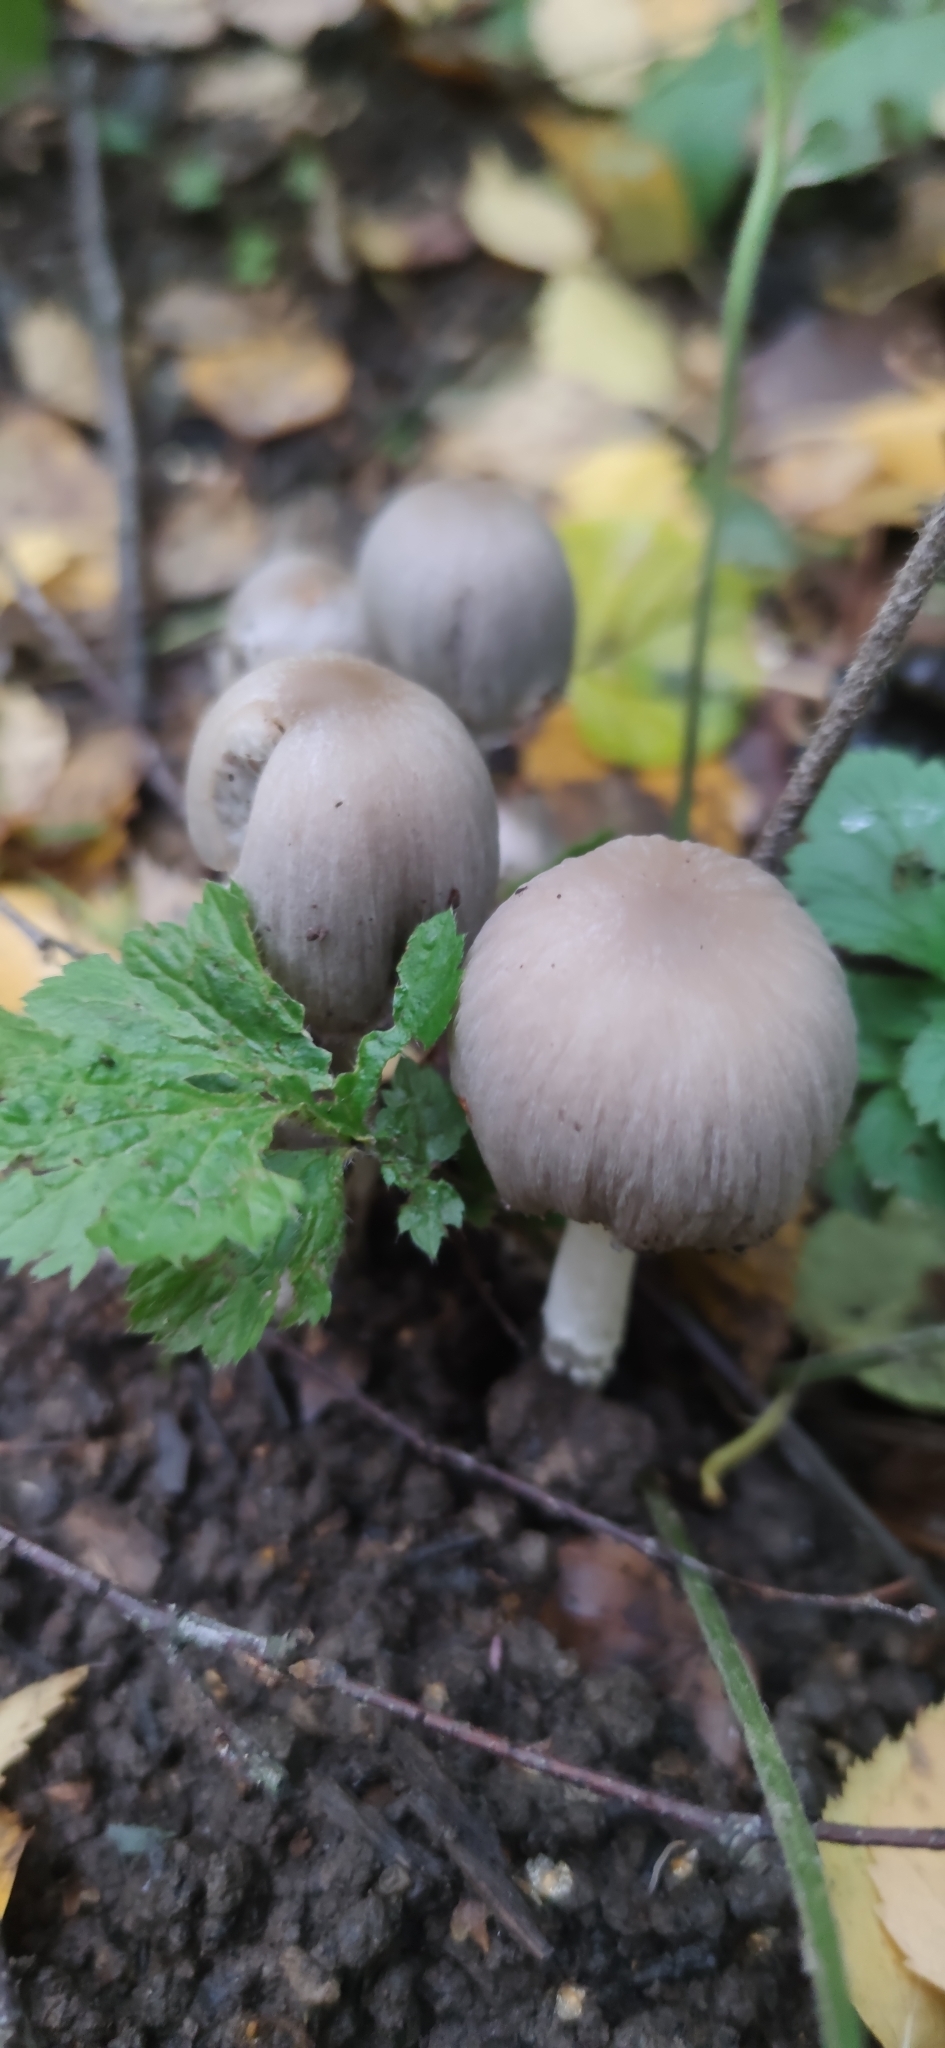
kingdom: Fungi
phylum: Basidiomycota
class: Agaricomycetes
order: Agaricales
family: Psathyrellaceae
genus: Coprinopsis
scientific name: Coprinopsis atramentaria
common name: Common ink-cap
